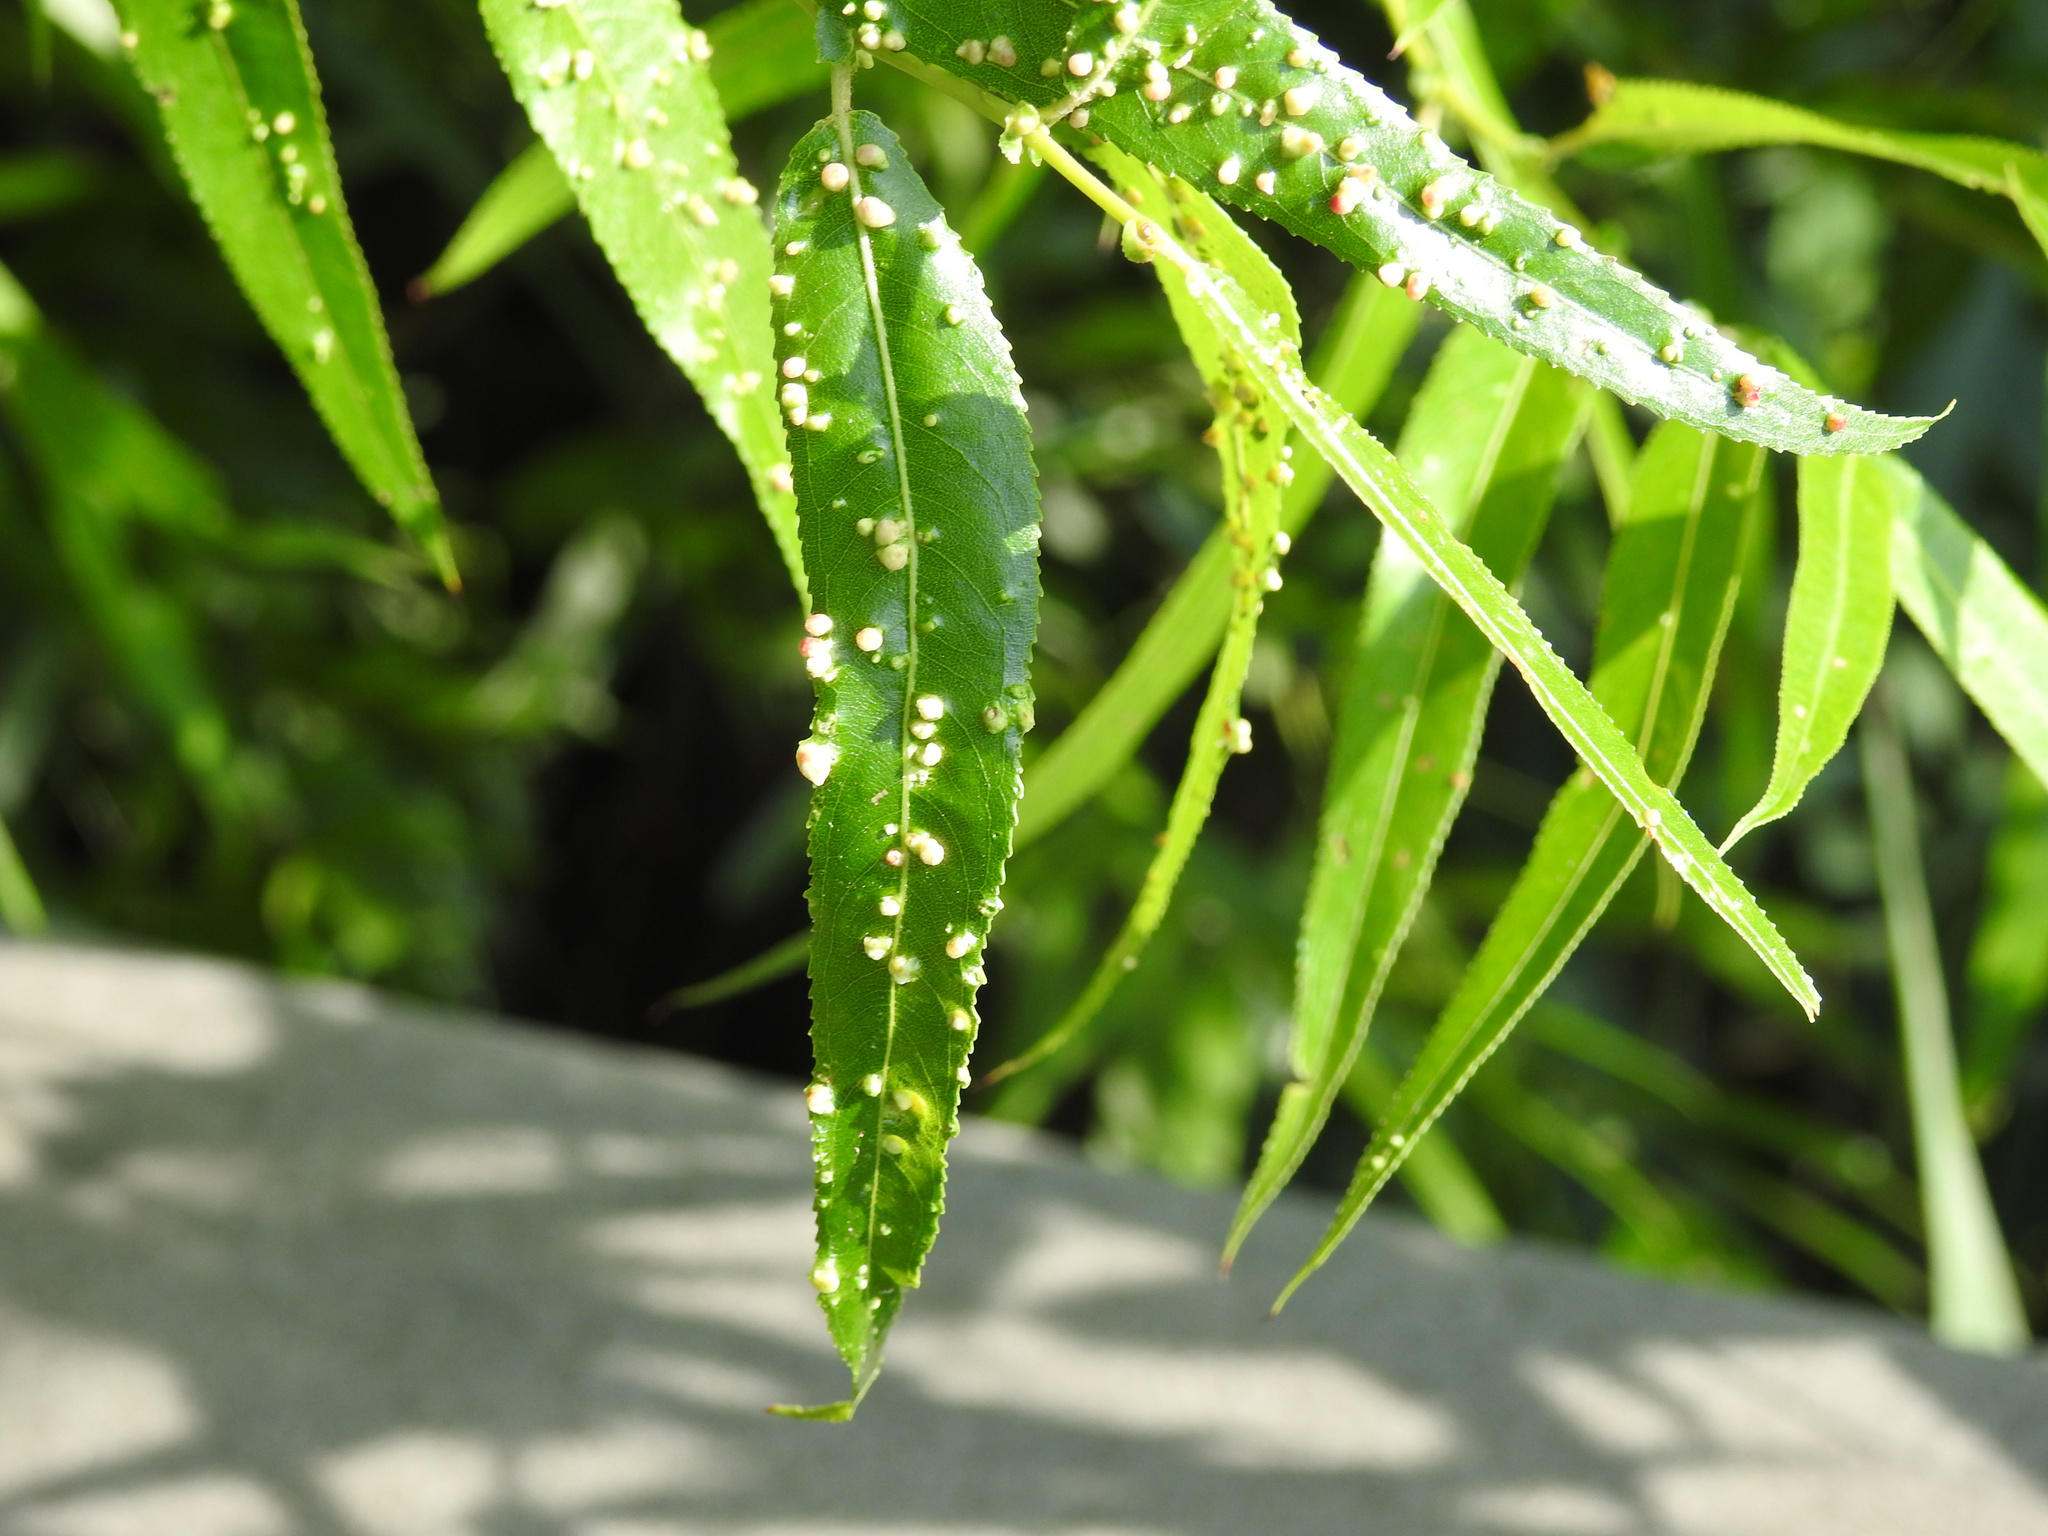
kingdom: Animalia
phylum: Arthropoda
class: Arachnida
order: Trombidiformes
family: Eriophyidae
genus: Aculus
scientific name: Aculus tetanothrix
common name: Willow bead gall mite
